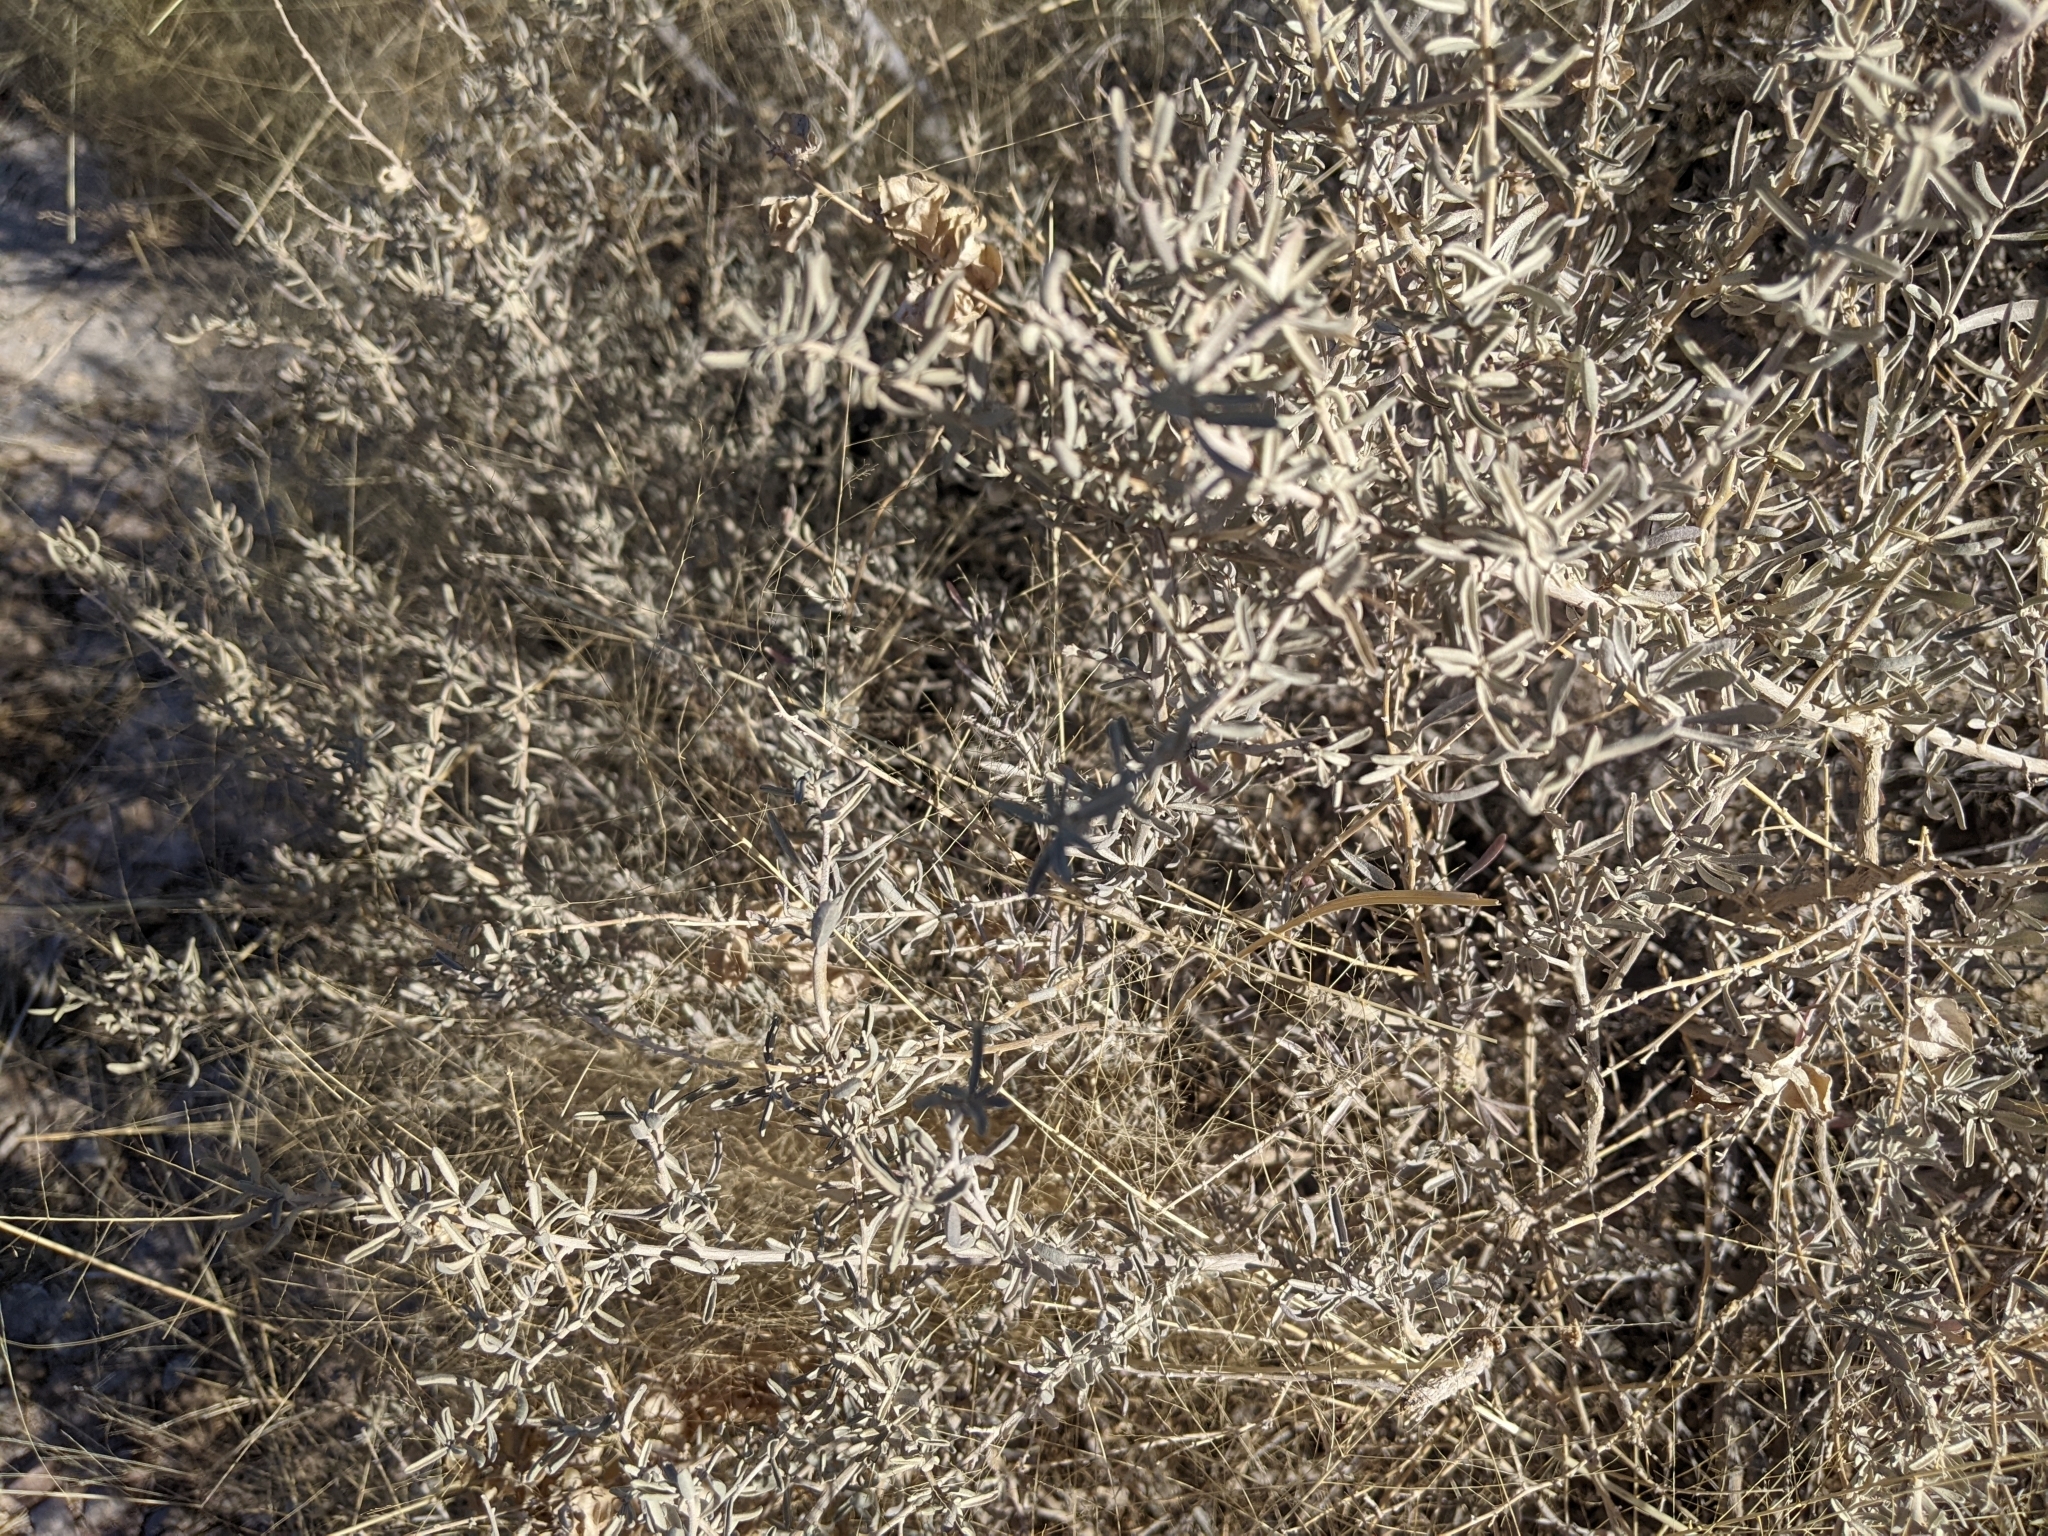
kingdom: Plantae
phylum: Tracheophyta
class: Magnoliopsida
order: Caryophyllales
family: Amaranthaceae
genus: Atriplex
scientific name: Atriplex canescens
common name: Four-wing saltbush
